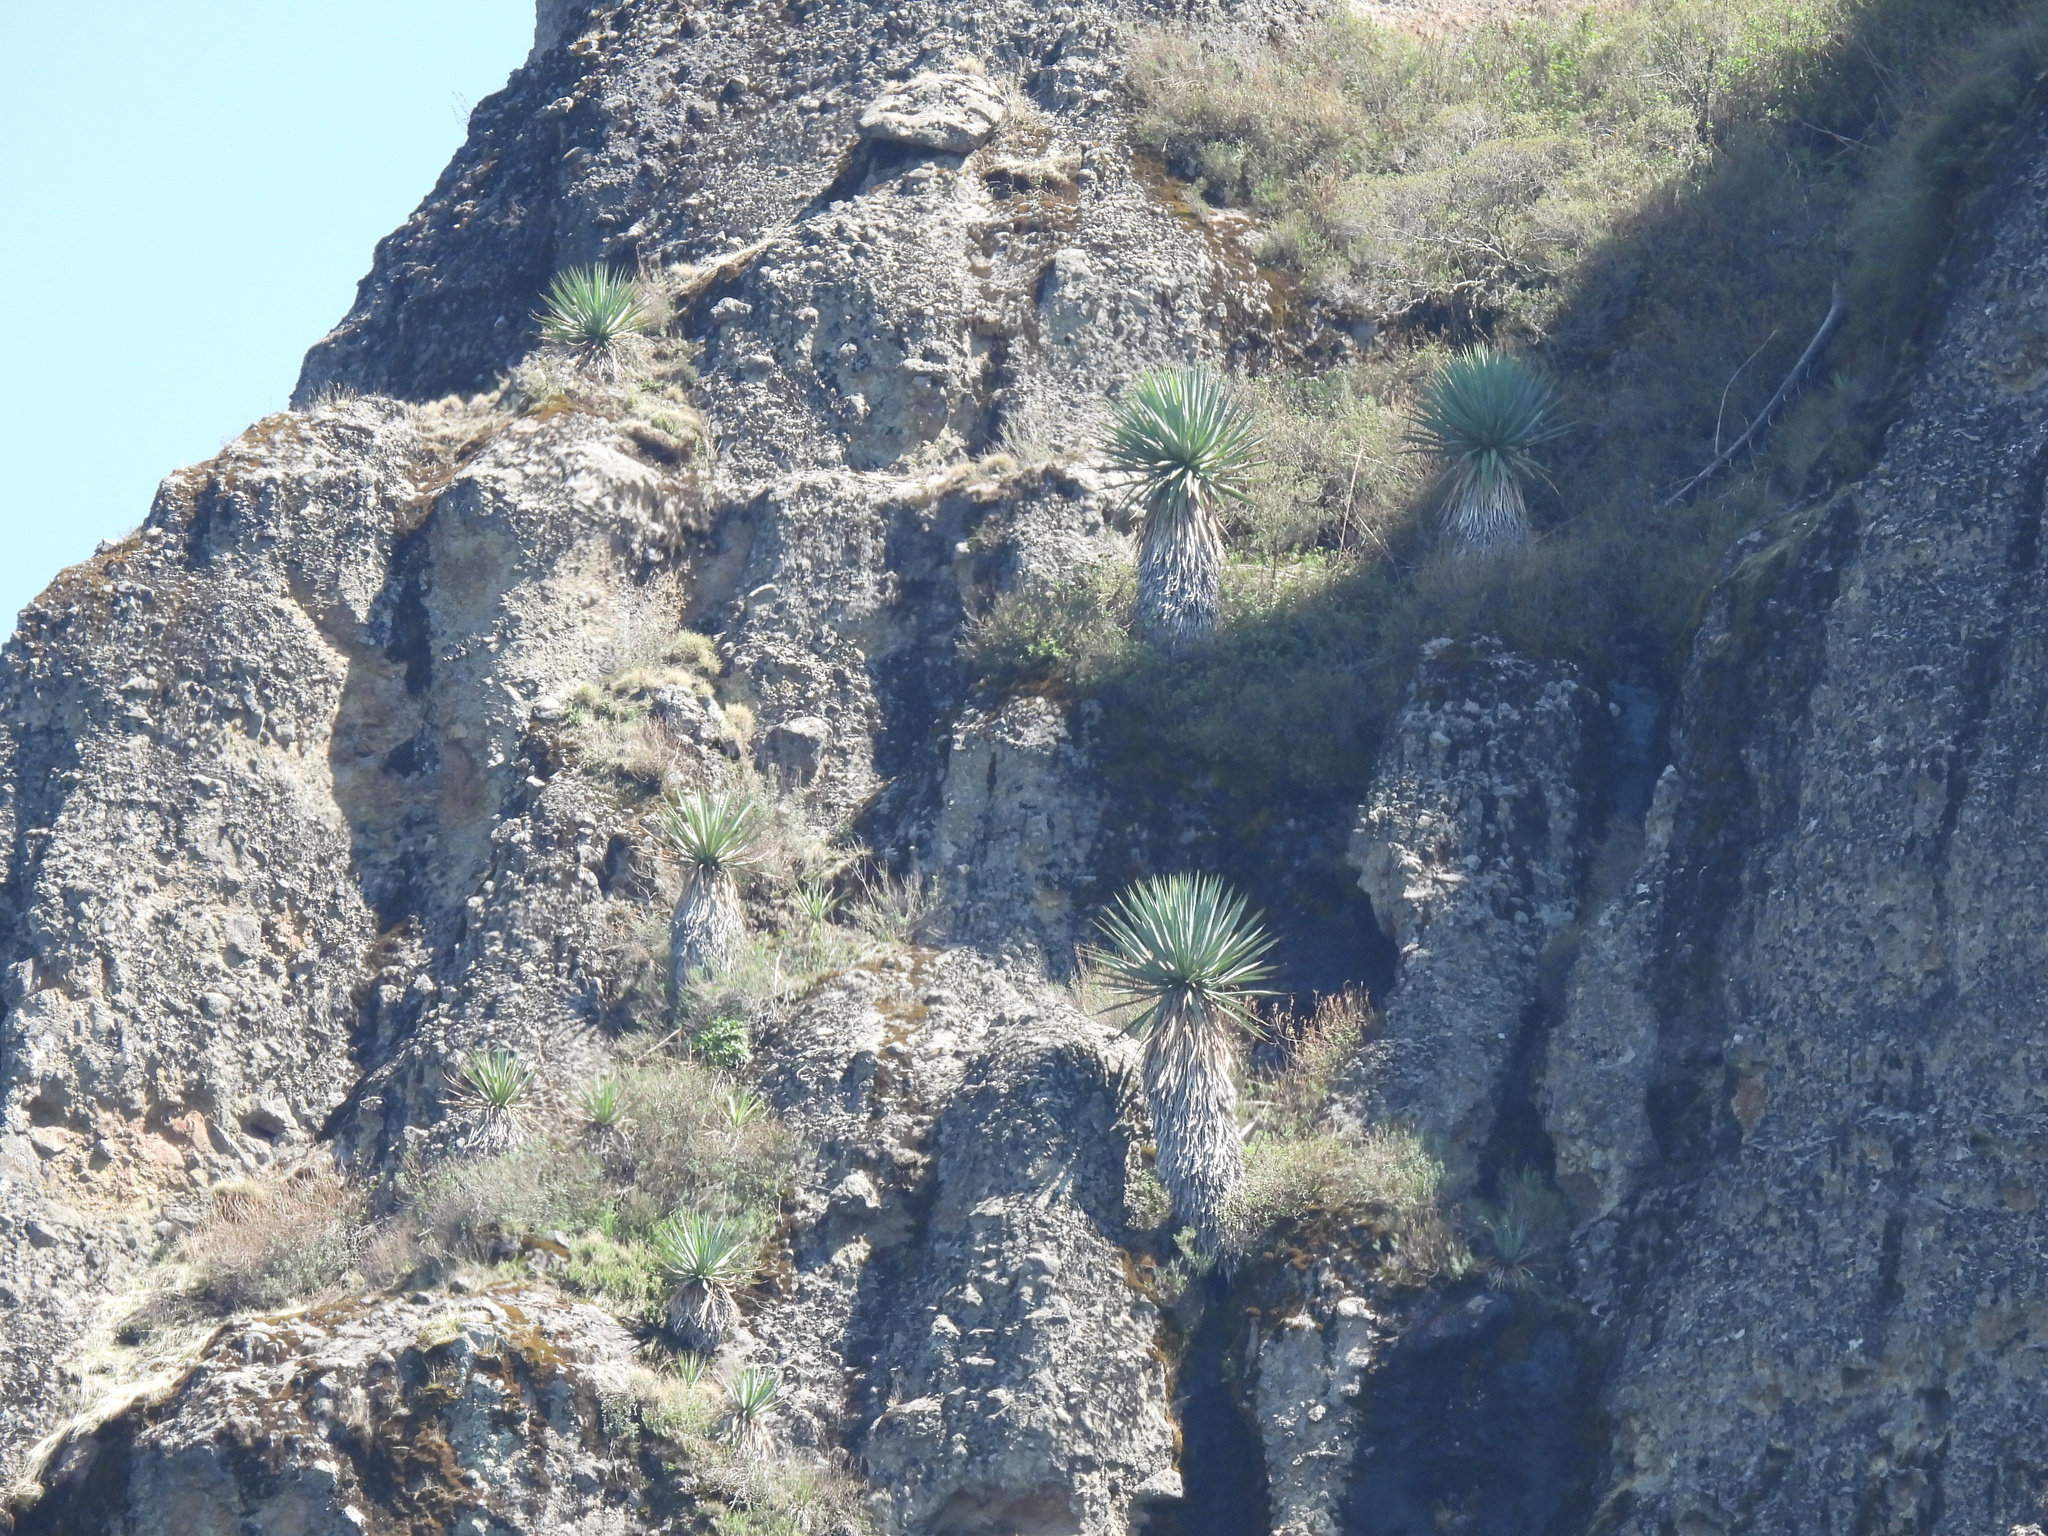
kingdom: Plantae
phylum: Tracheophyta
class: Liliopsida
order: Asparagales
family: Asparagaceae
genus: Furcraea
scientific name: Furcraea parmentieri
